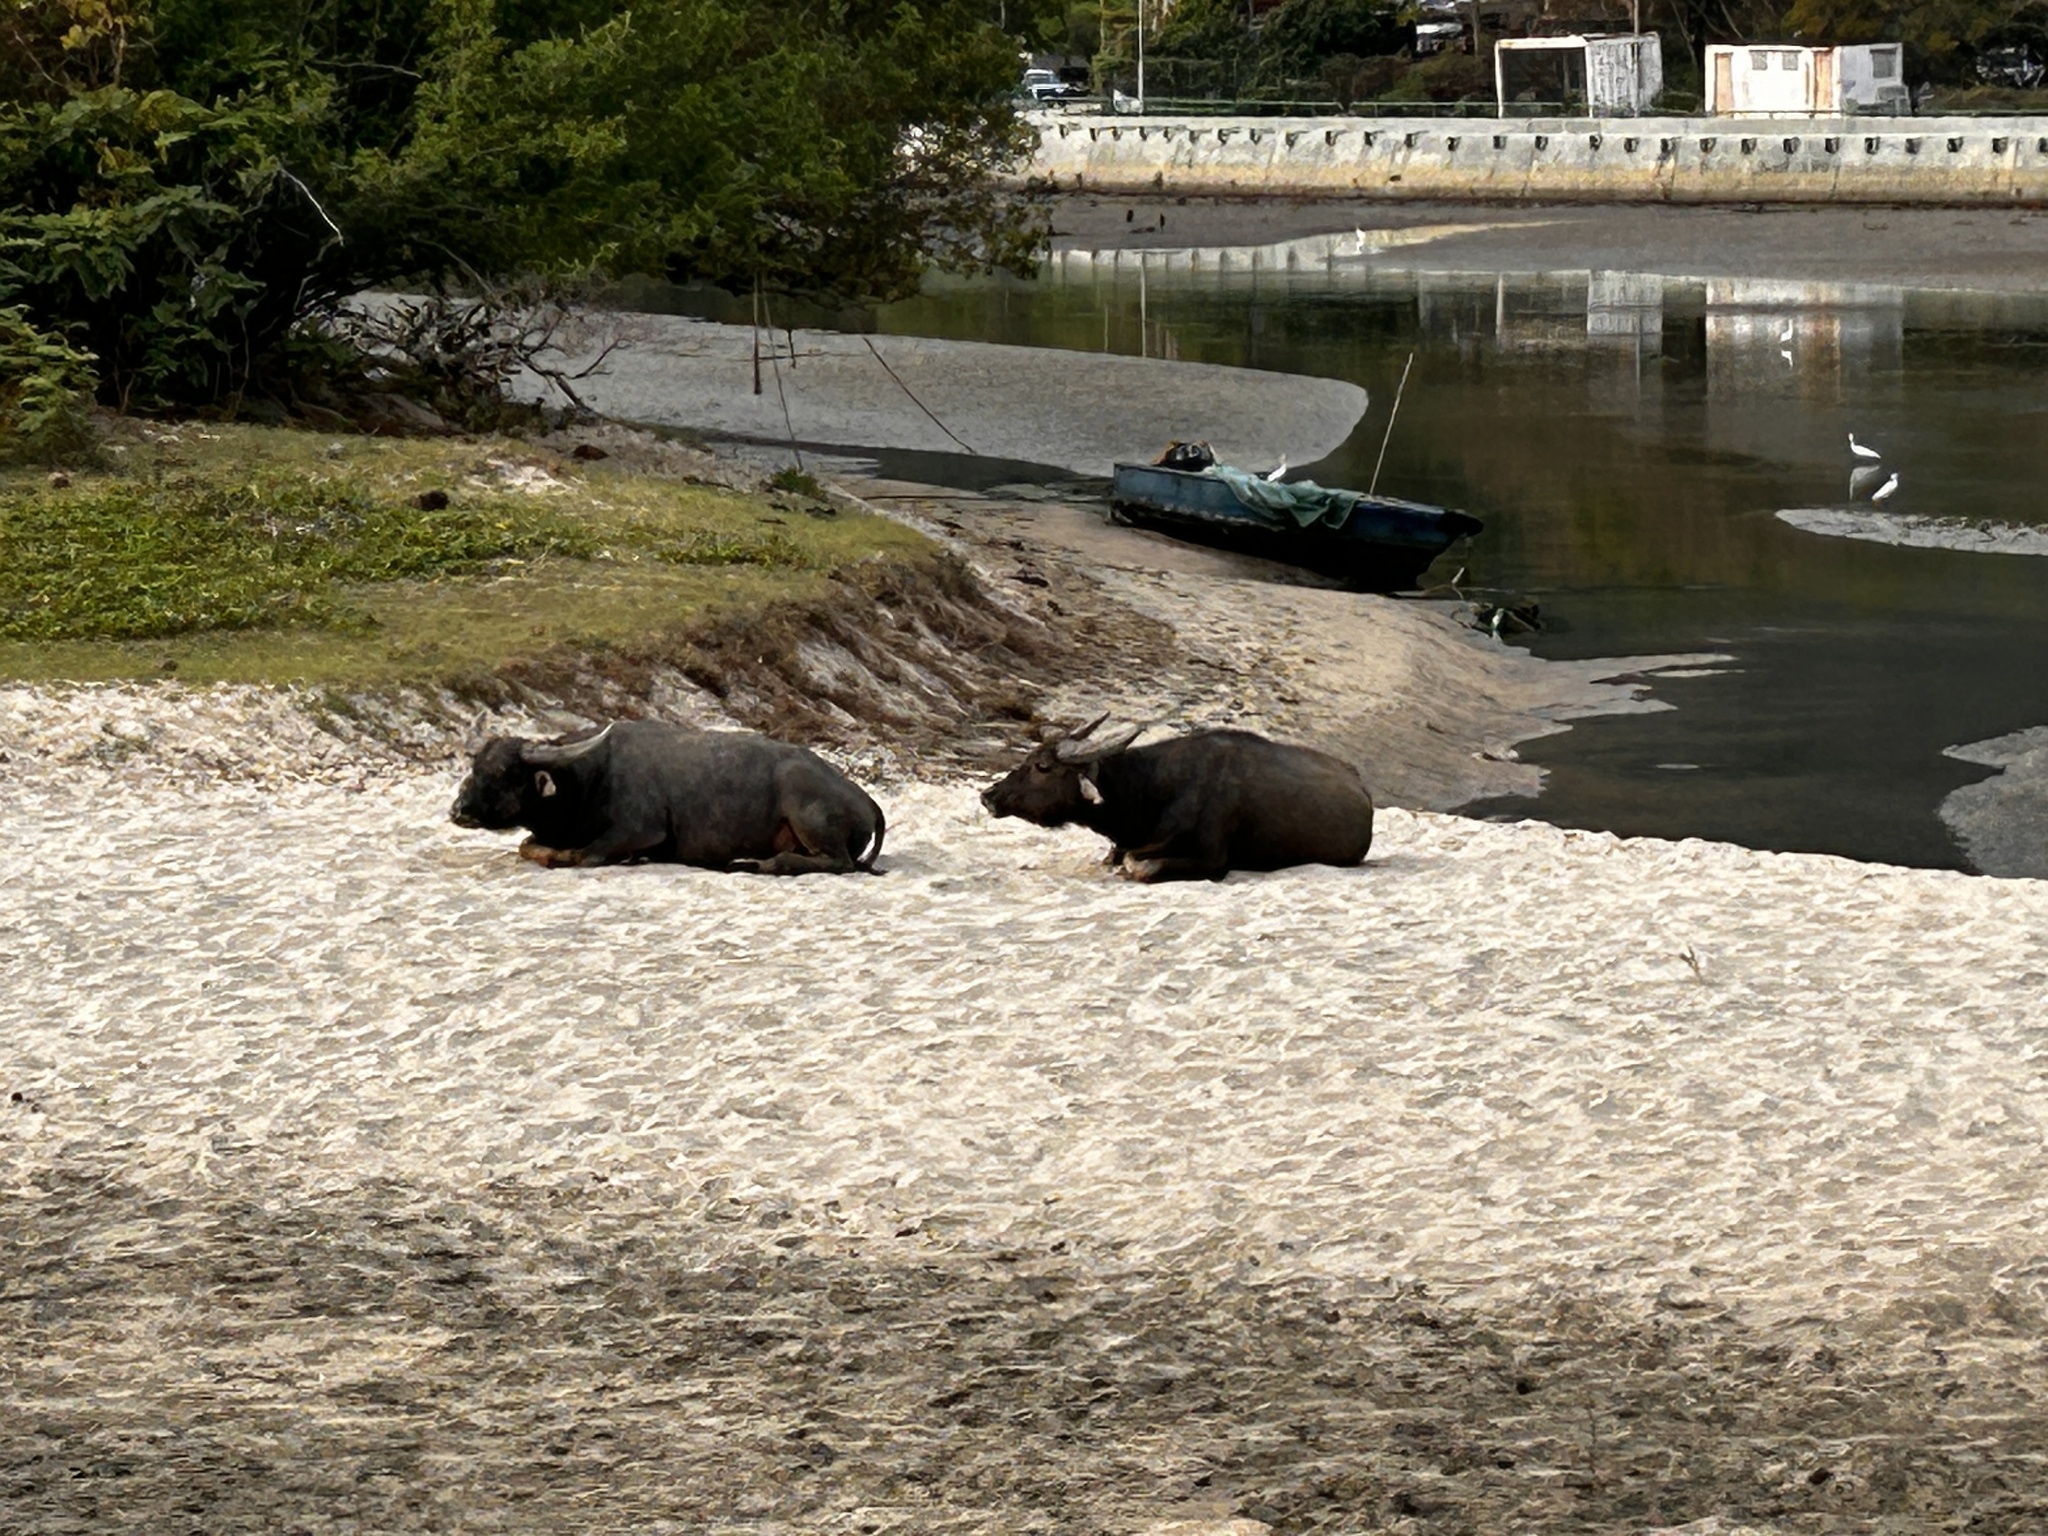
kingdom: Animalia
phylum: Chordata
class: Mammalia
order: Artiodactyla
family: Bovidae
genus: Bubalus
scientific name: Bubalus bubalis
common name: Water buffalo
